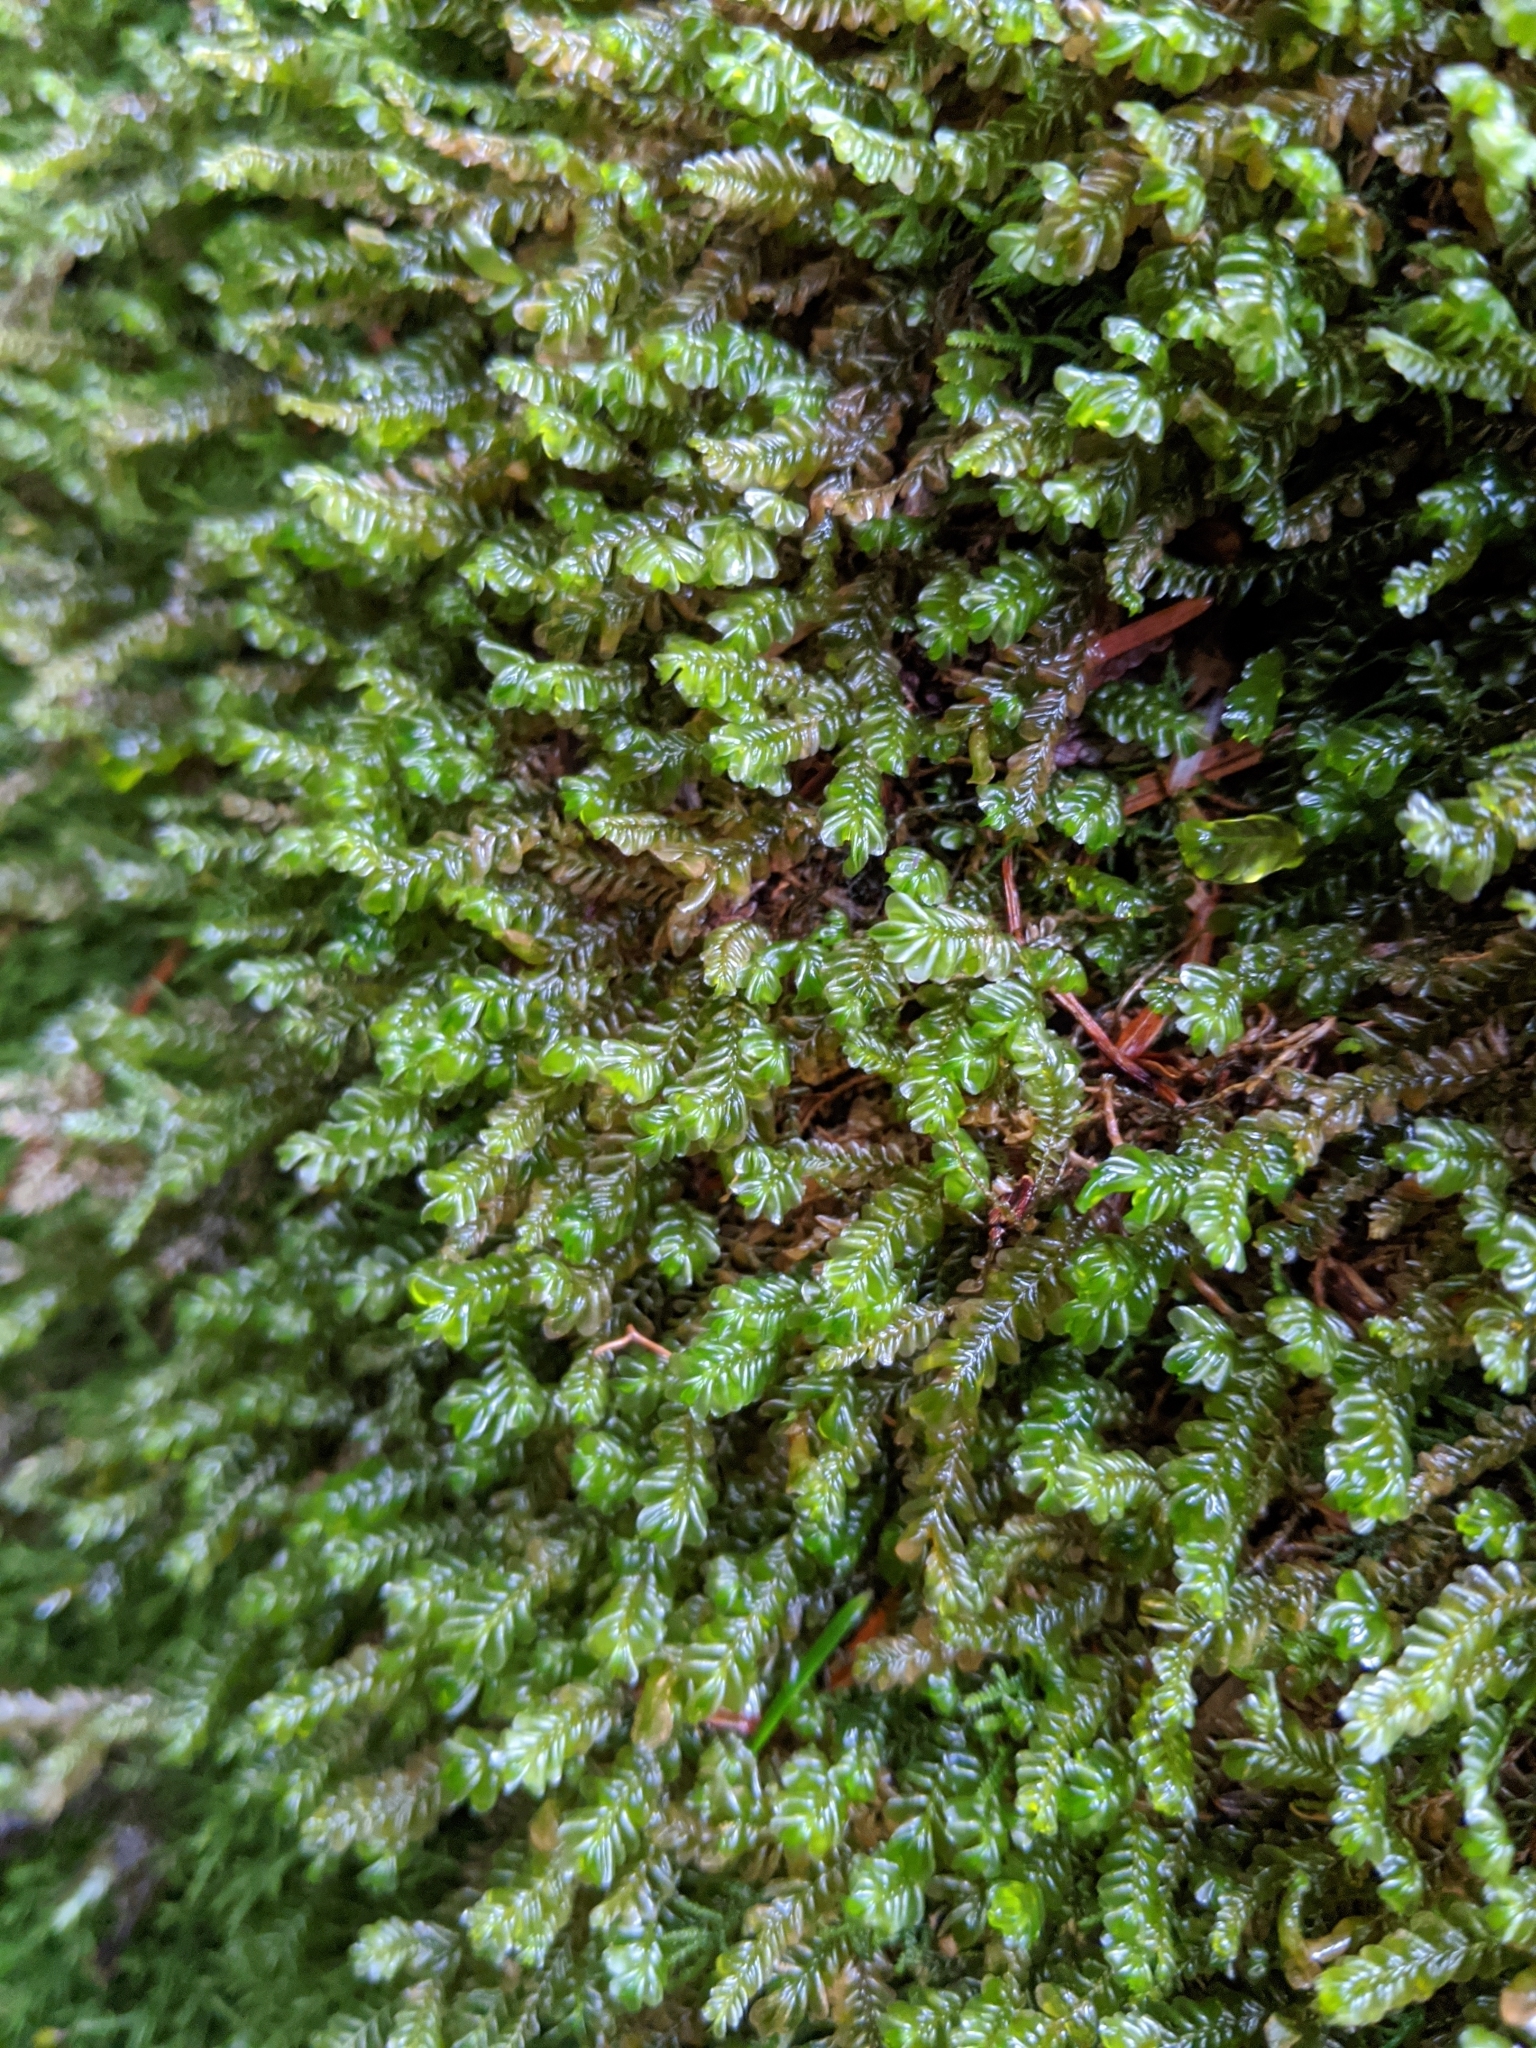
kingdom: Plantae
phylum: Marchantiophyta
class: Jungermanniopsida
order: Jungermanniales
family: Plagiochilaceae
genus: Plagiochila
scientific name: Plagiochila porelloides
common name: Lesser featherwort
